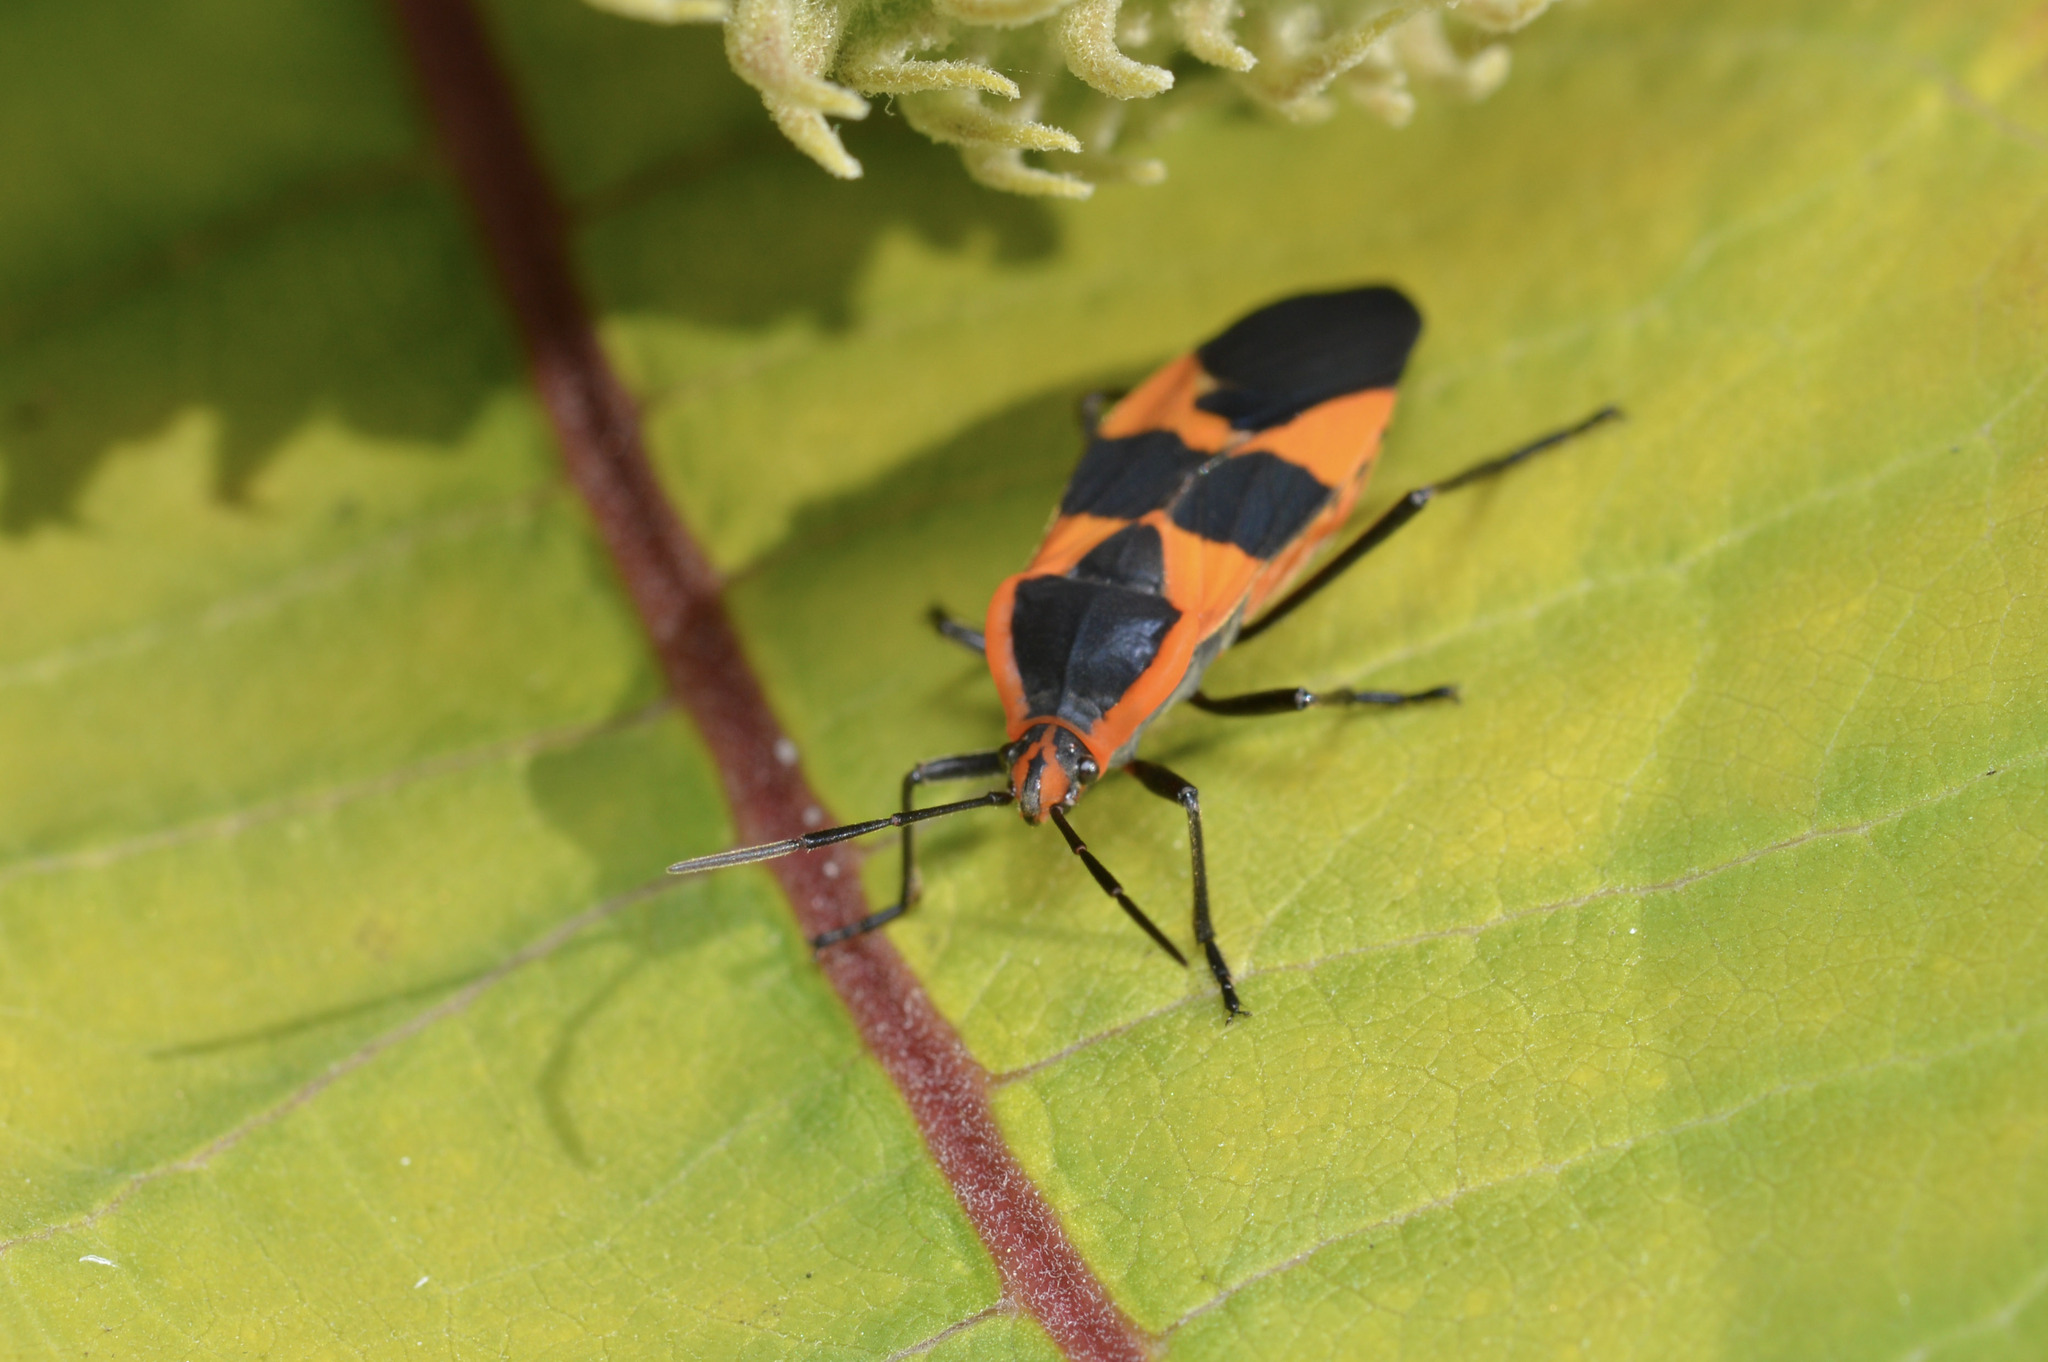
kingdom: Animalia
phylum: Arthropoda
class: Insecta
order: Hemiptera
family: Lygaeidae
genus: Oncopeltus
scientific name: Oncopeltus fasciatus
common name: Large milkweed bug
